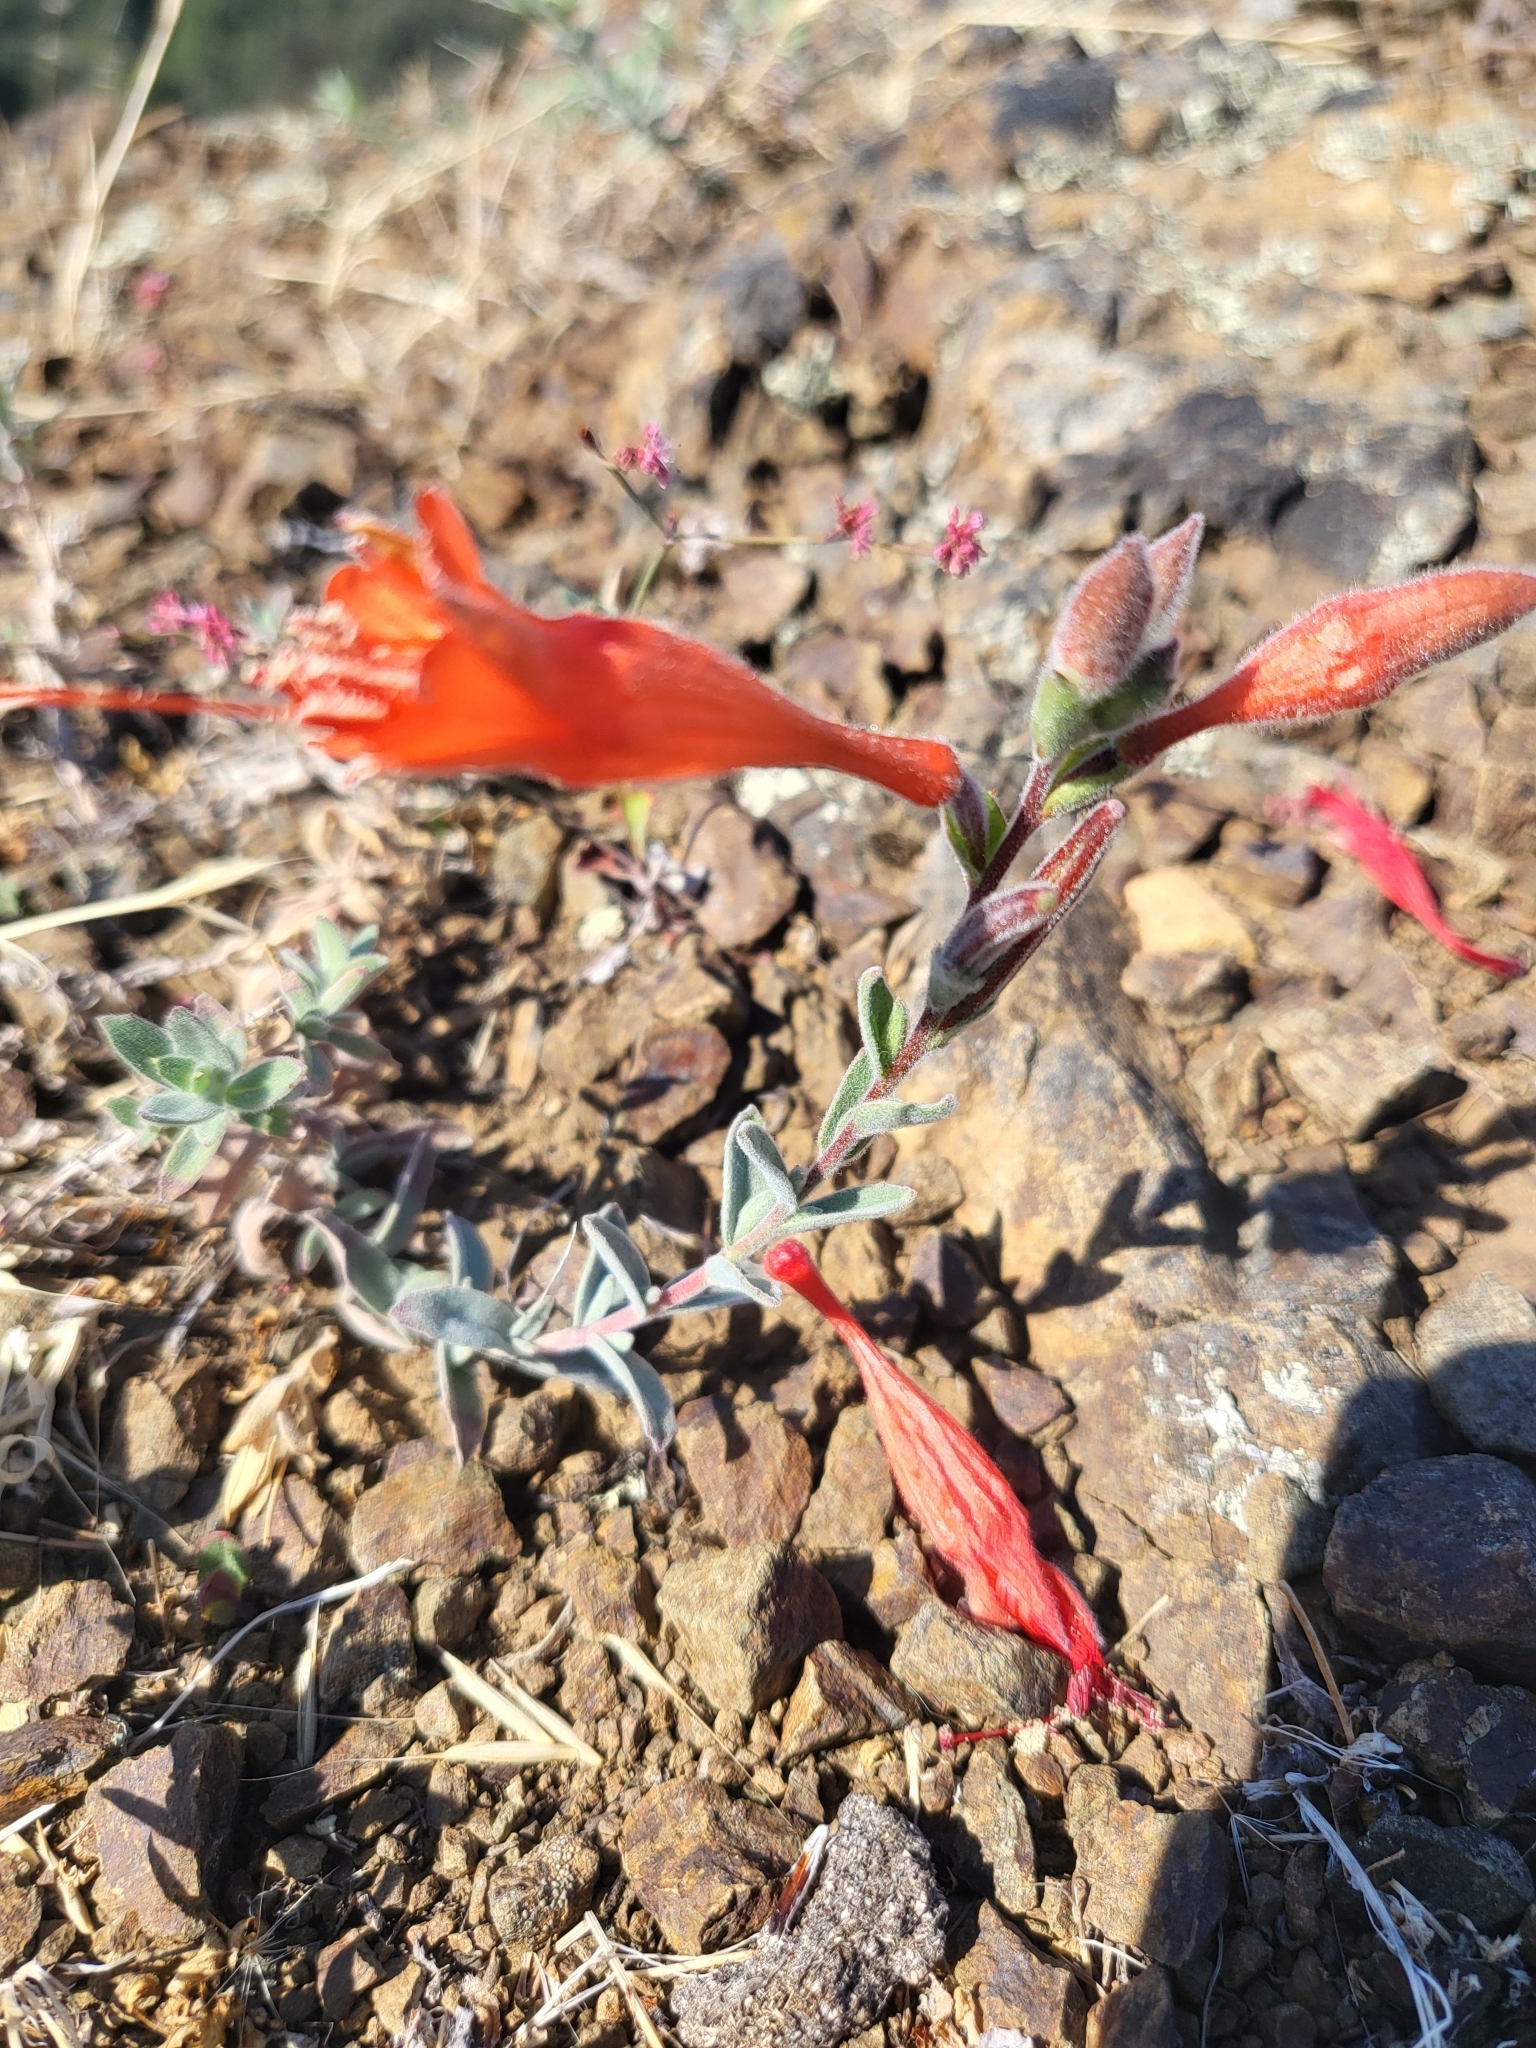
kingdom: Plantae
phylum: Tracheophyta
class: Magnoliopsida
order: Myrtales
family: Onagraceae
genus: Epilobium
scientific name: Epilobium canum
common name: California-fuchsia
